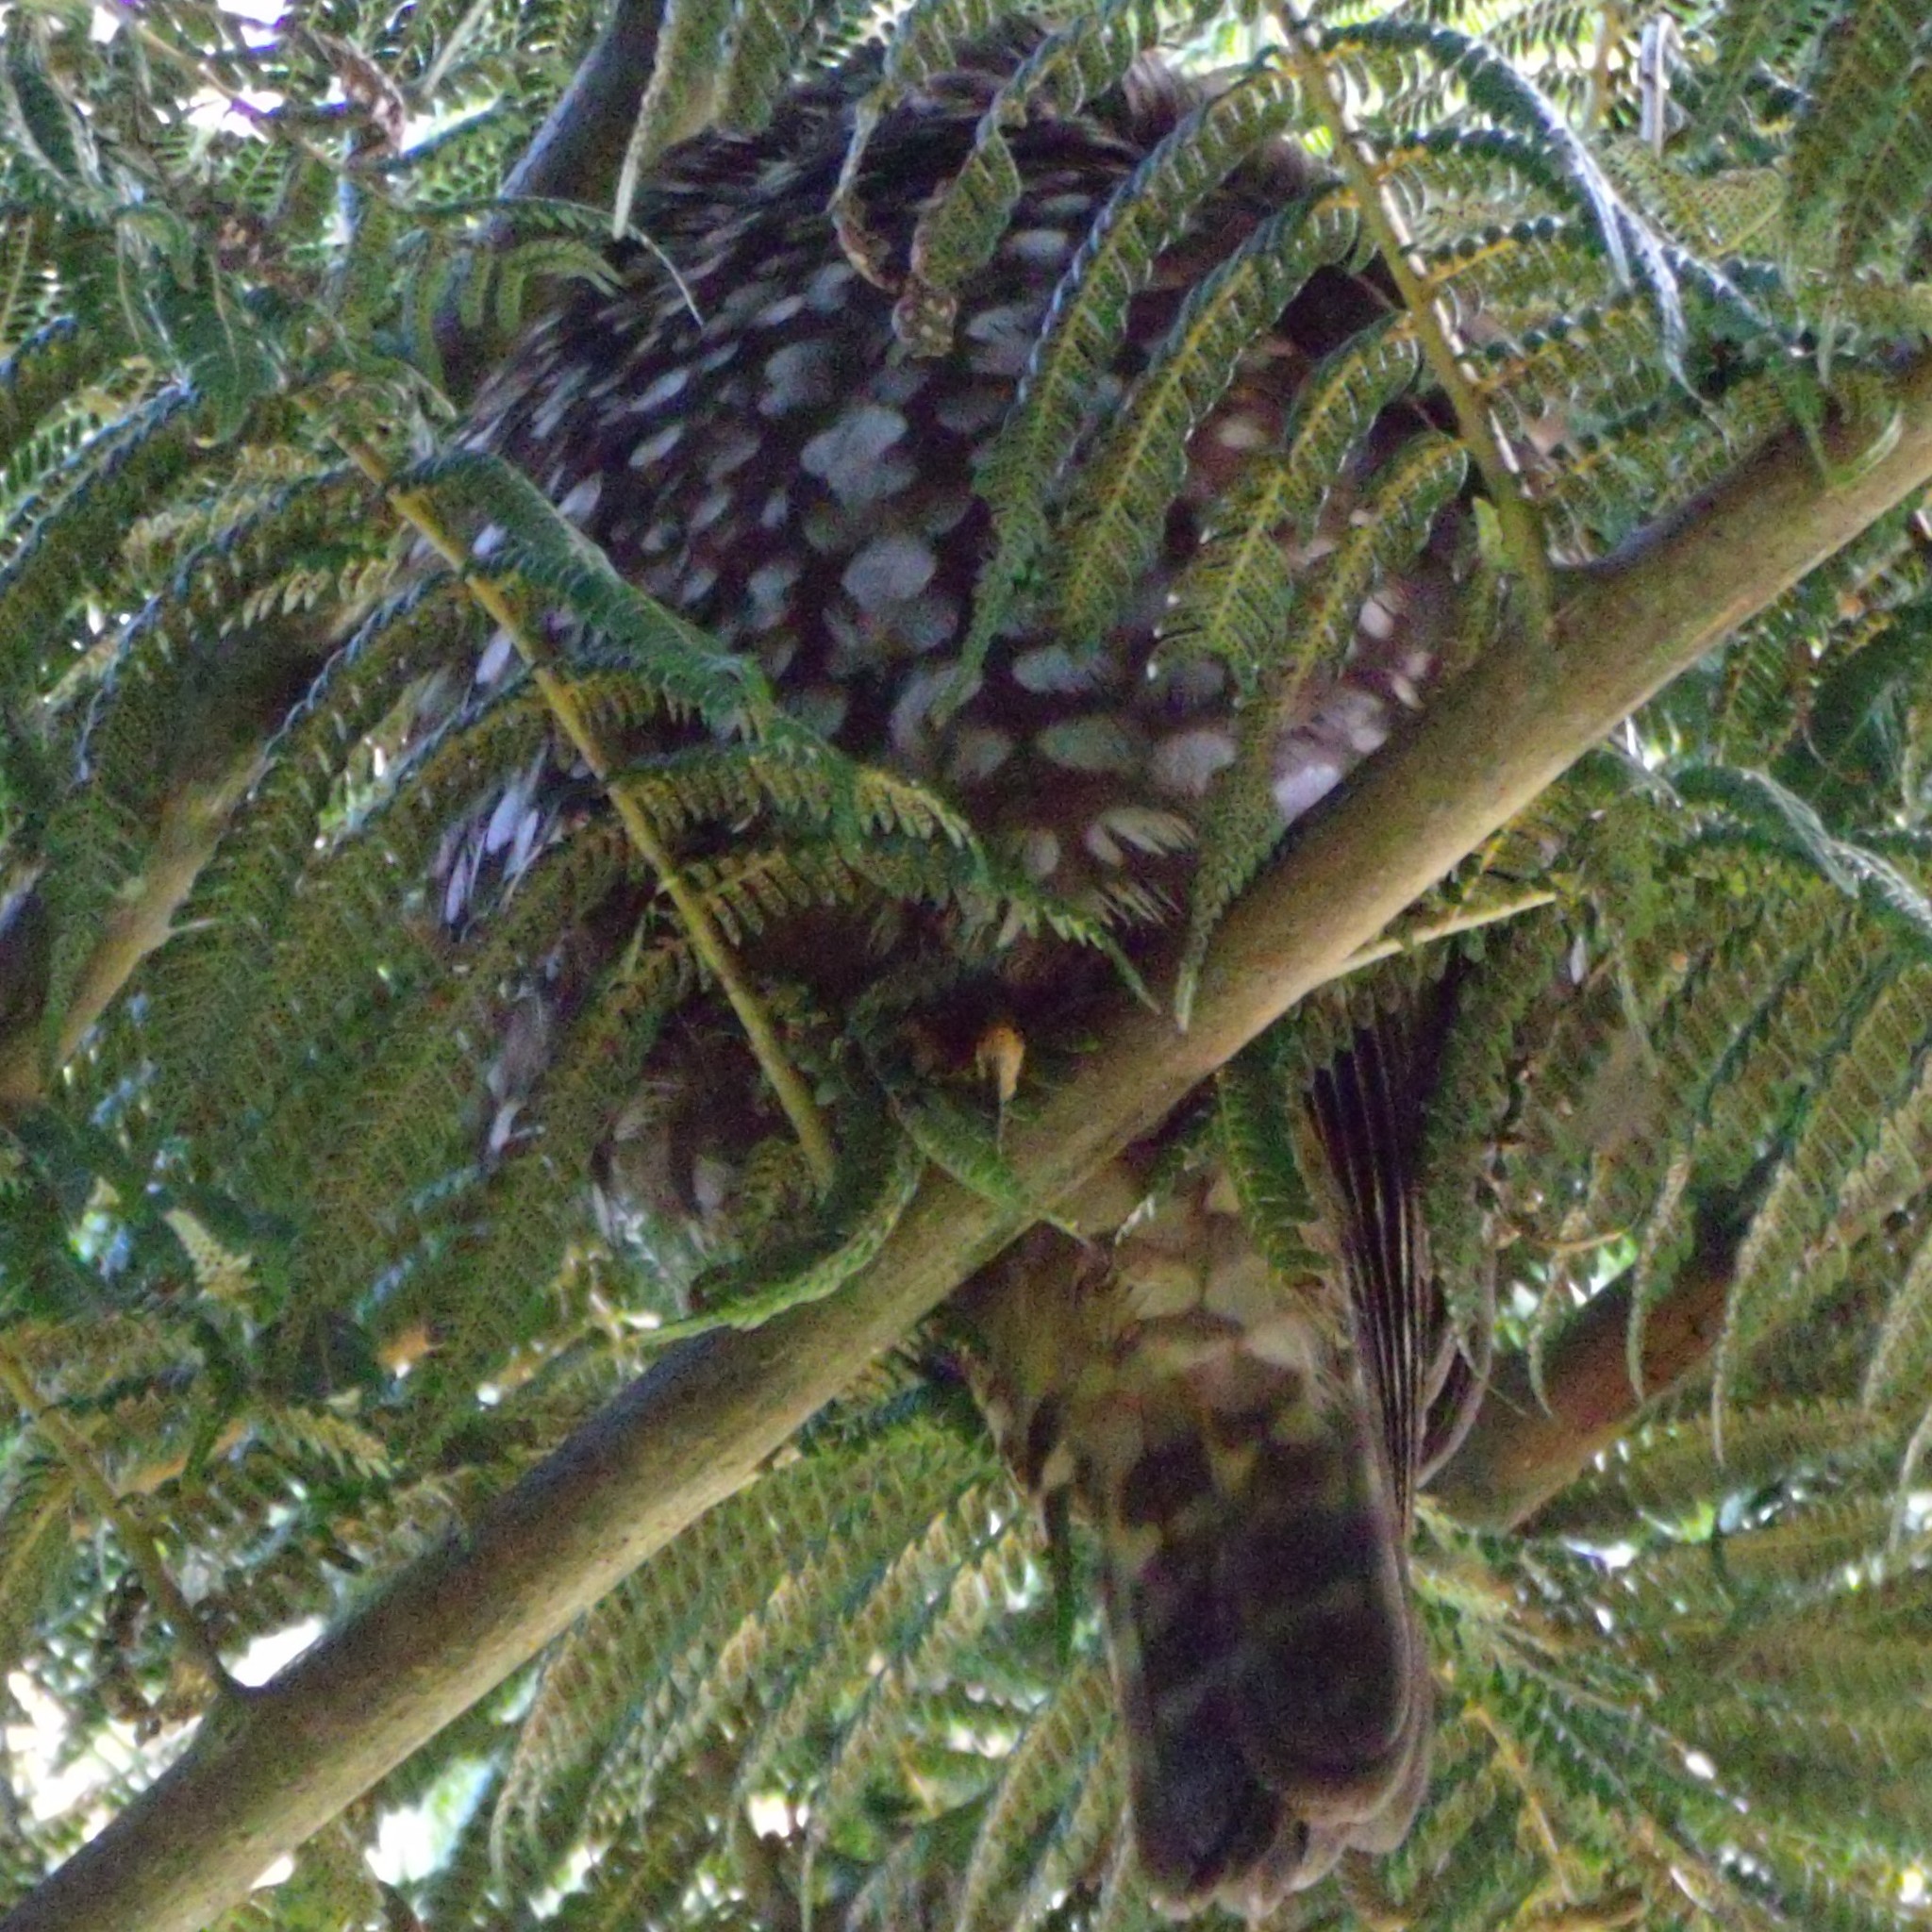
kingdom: Animalia
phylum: Chordata
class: Aves
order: Strigiformes
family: Strigidae
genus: Ninox
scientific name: Ninox novaeseelandiae
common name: Morepork
